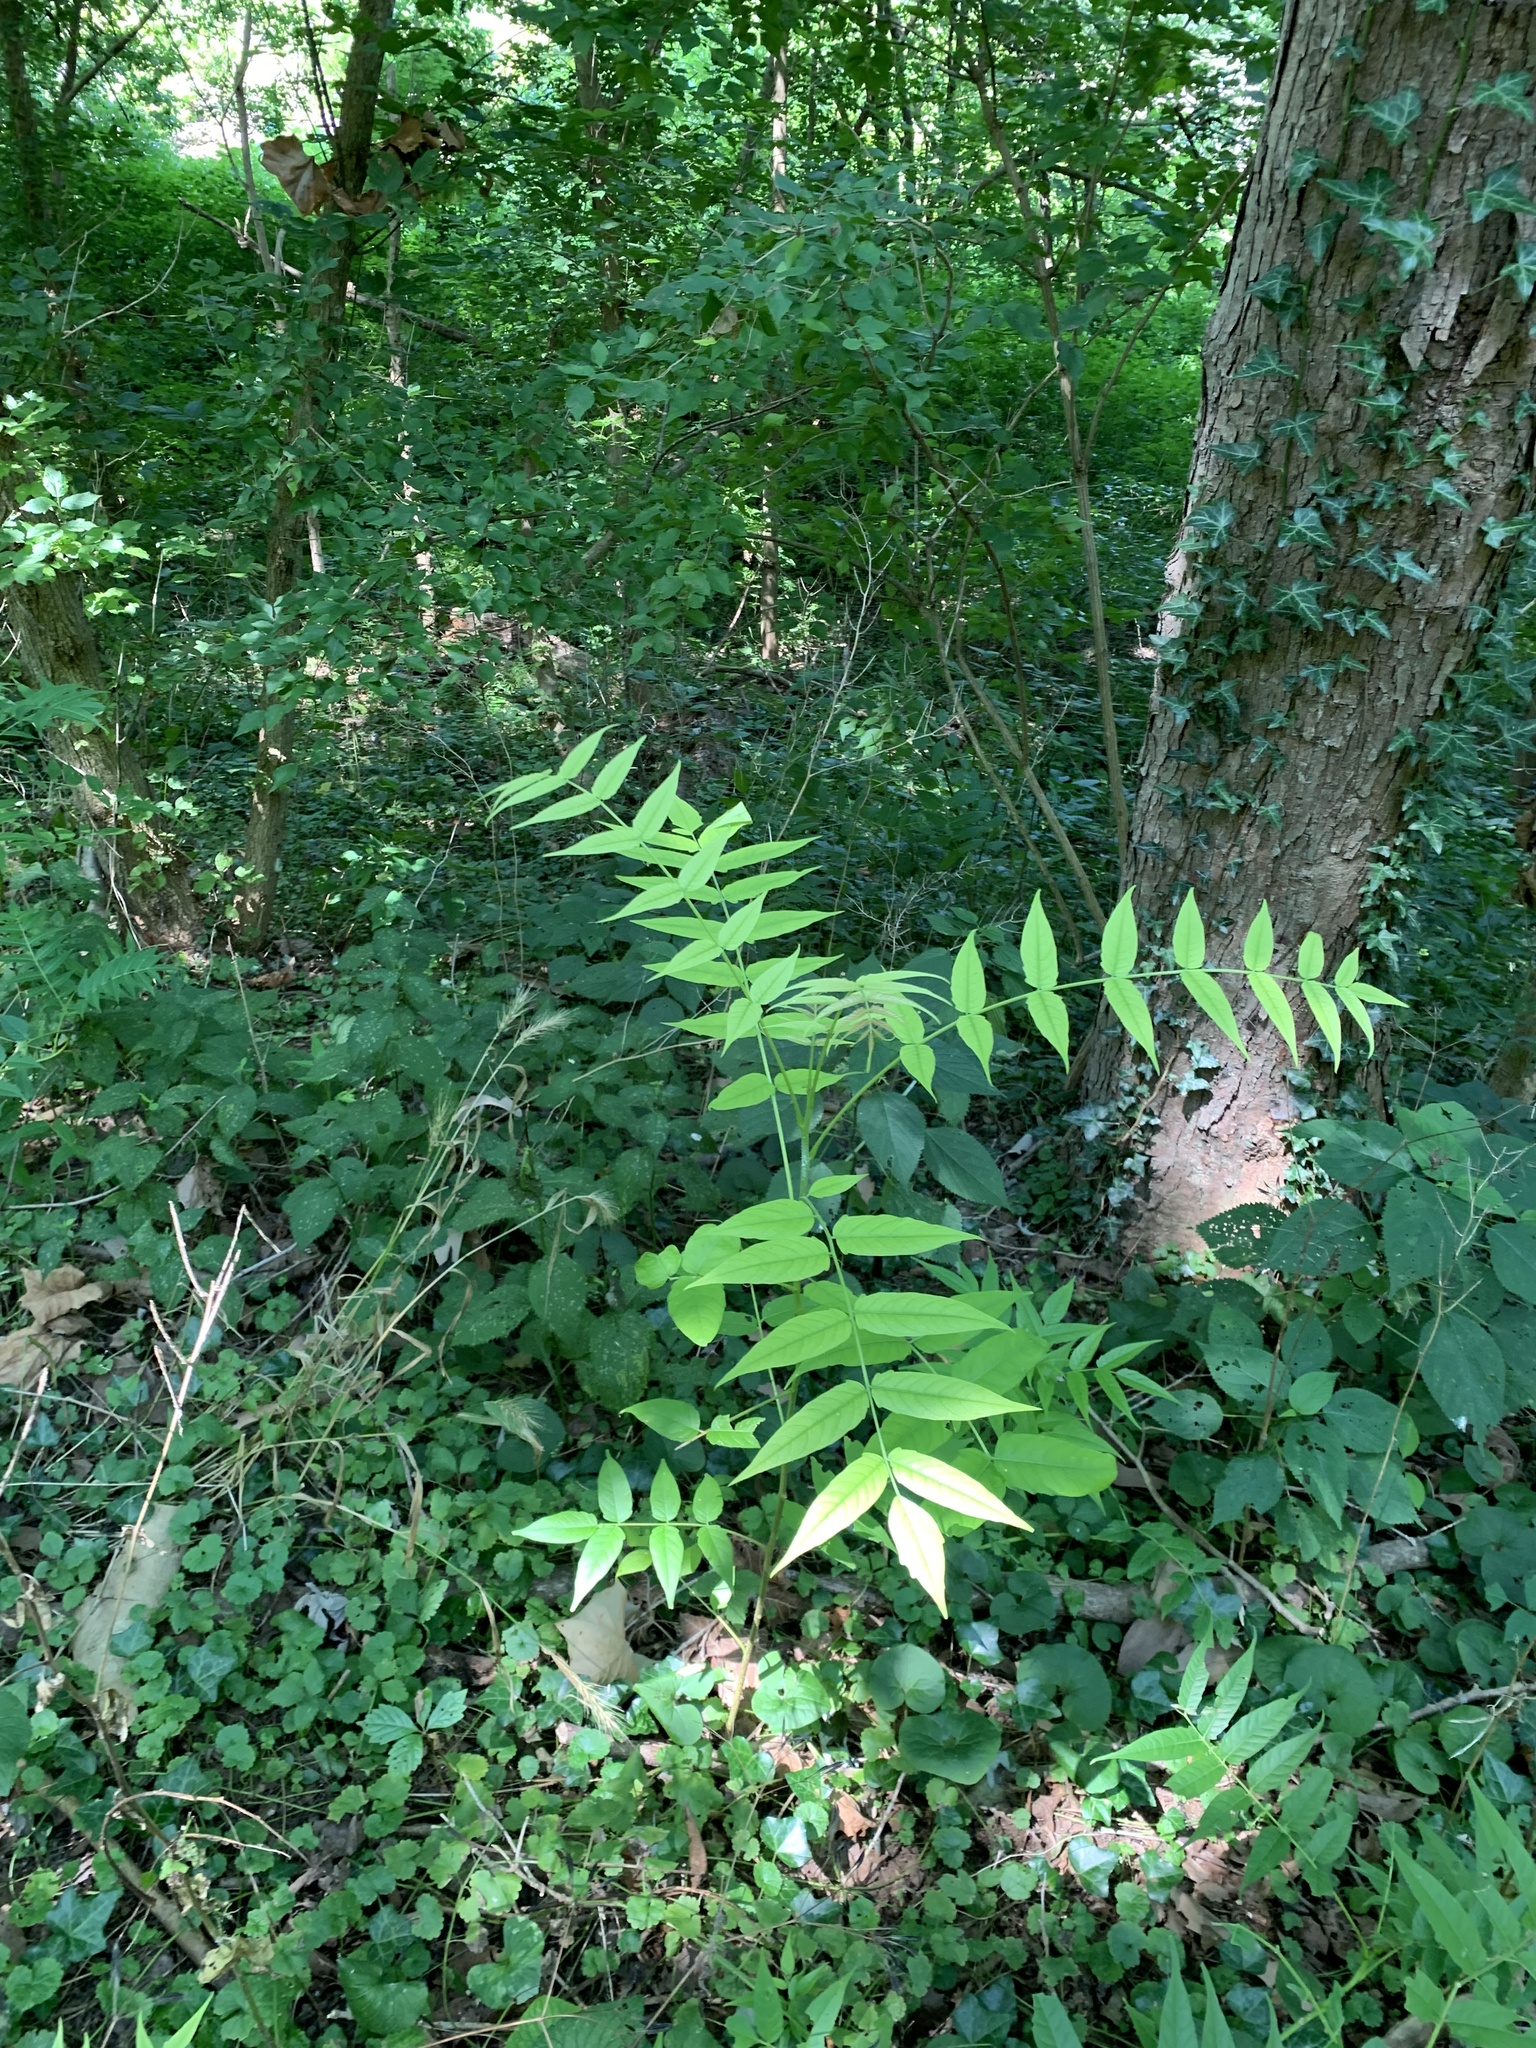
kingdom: Plantae
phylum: Tracheophyta
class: Magnoliopsida
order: Sapindales
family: Simaroubaceae
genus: Ailanthus
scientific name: Ailanthus altissima
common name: Tree-of-heaven
